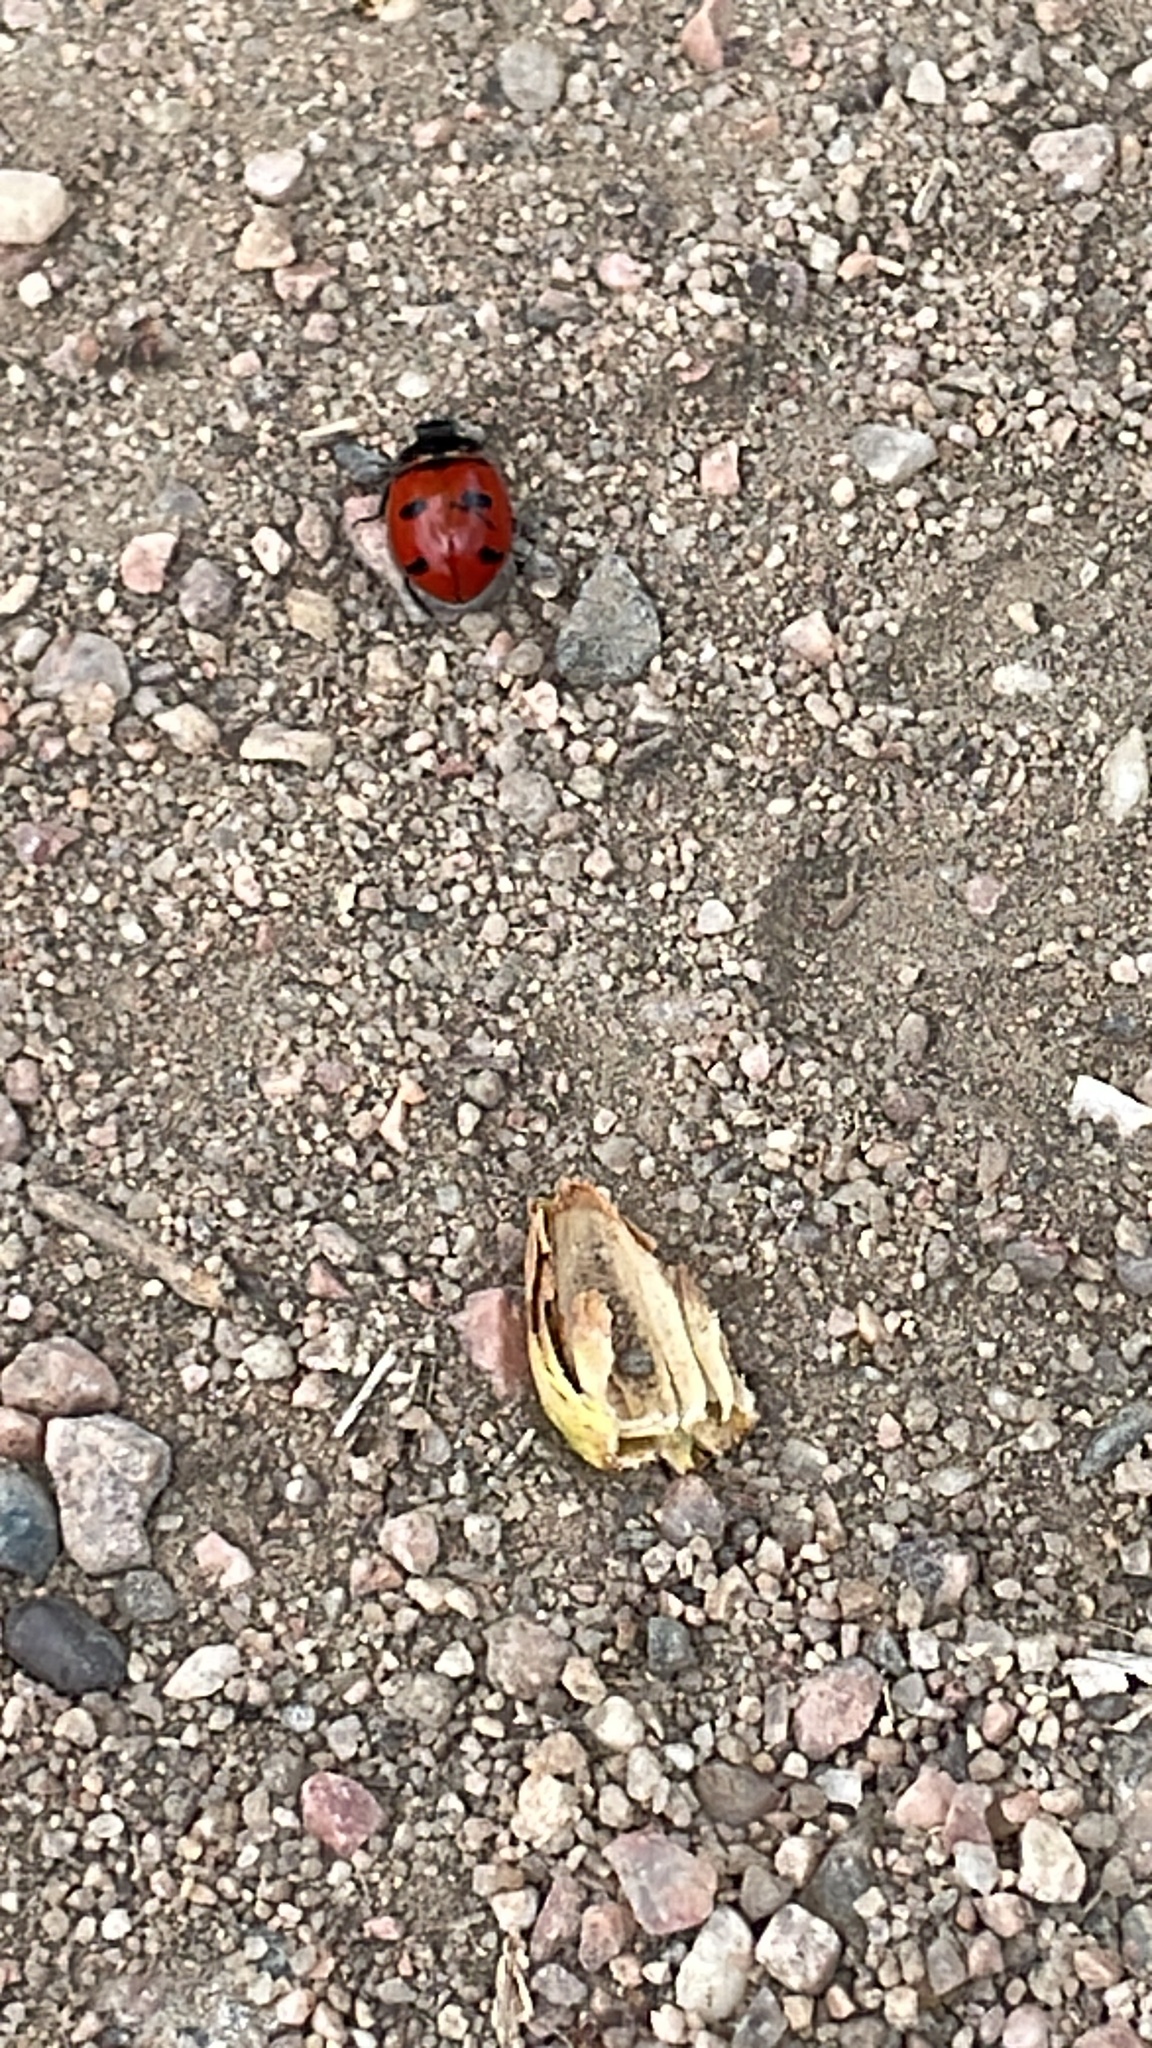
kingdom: Animalia
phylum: Arthropoda
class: Insecta
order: Coleoptera
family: Coccinellidae
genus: Coccinella
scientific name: Coccinella transversoguttata
